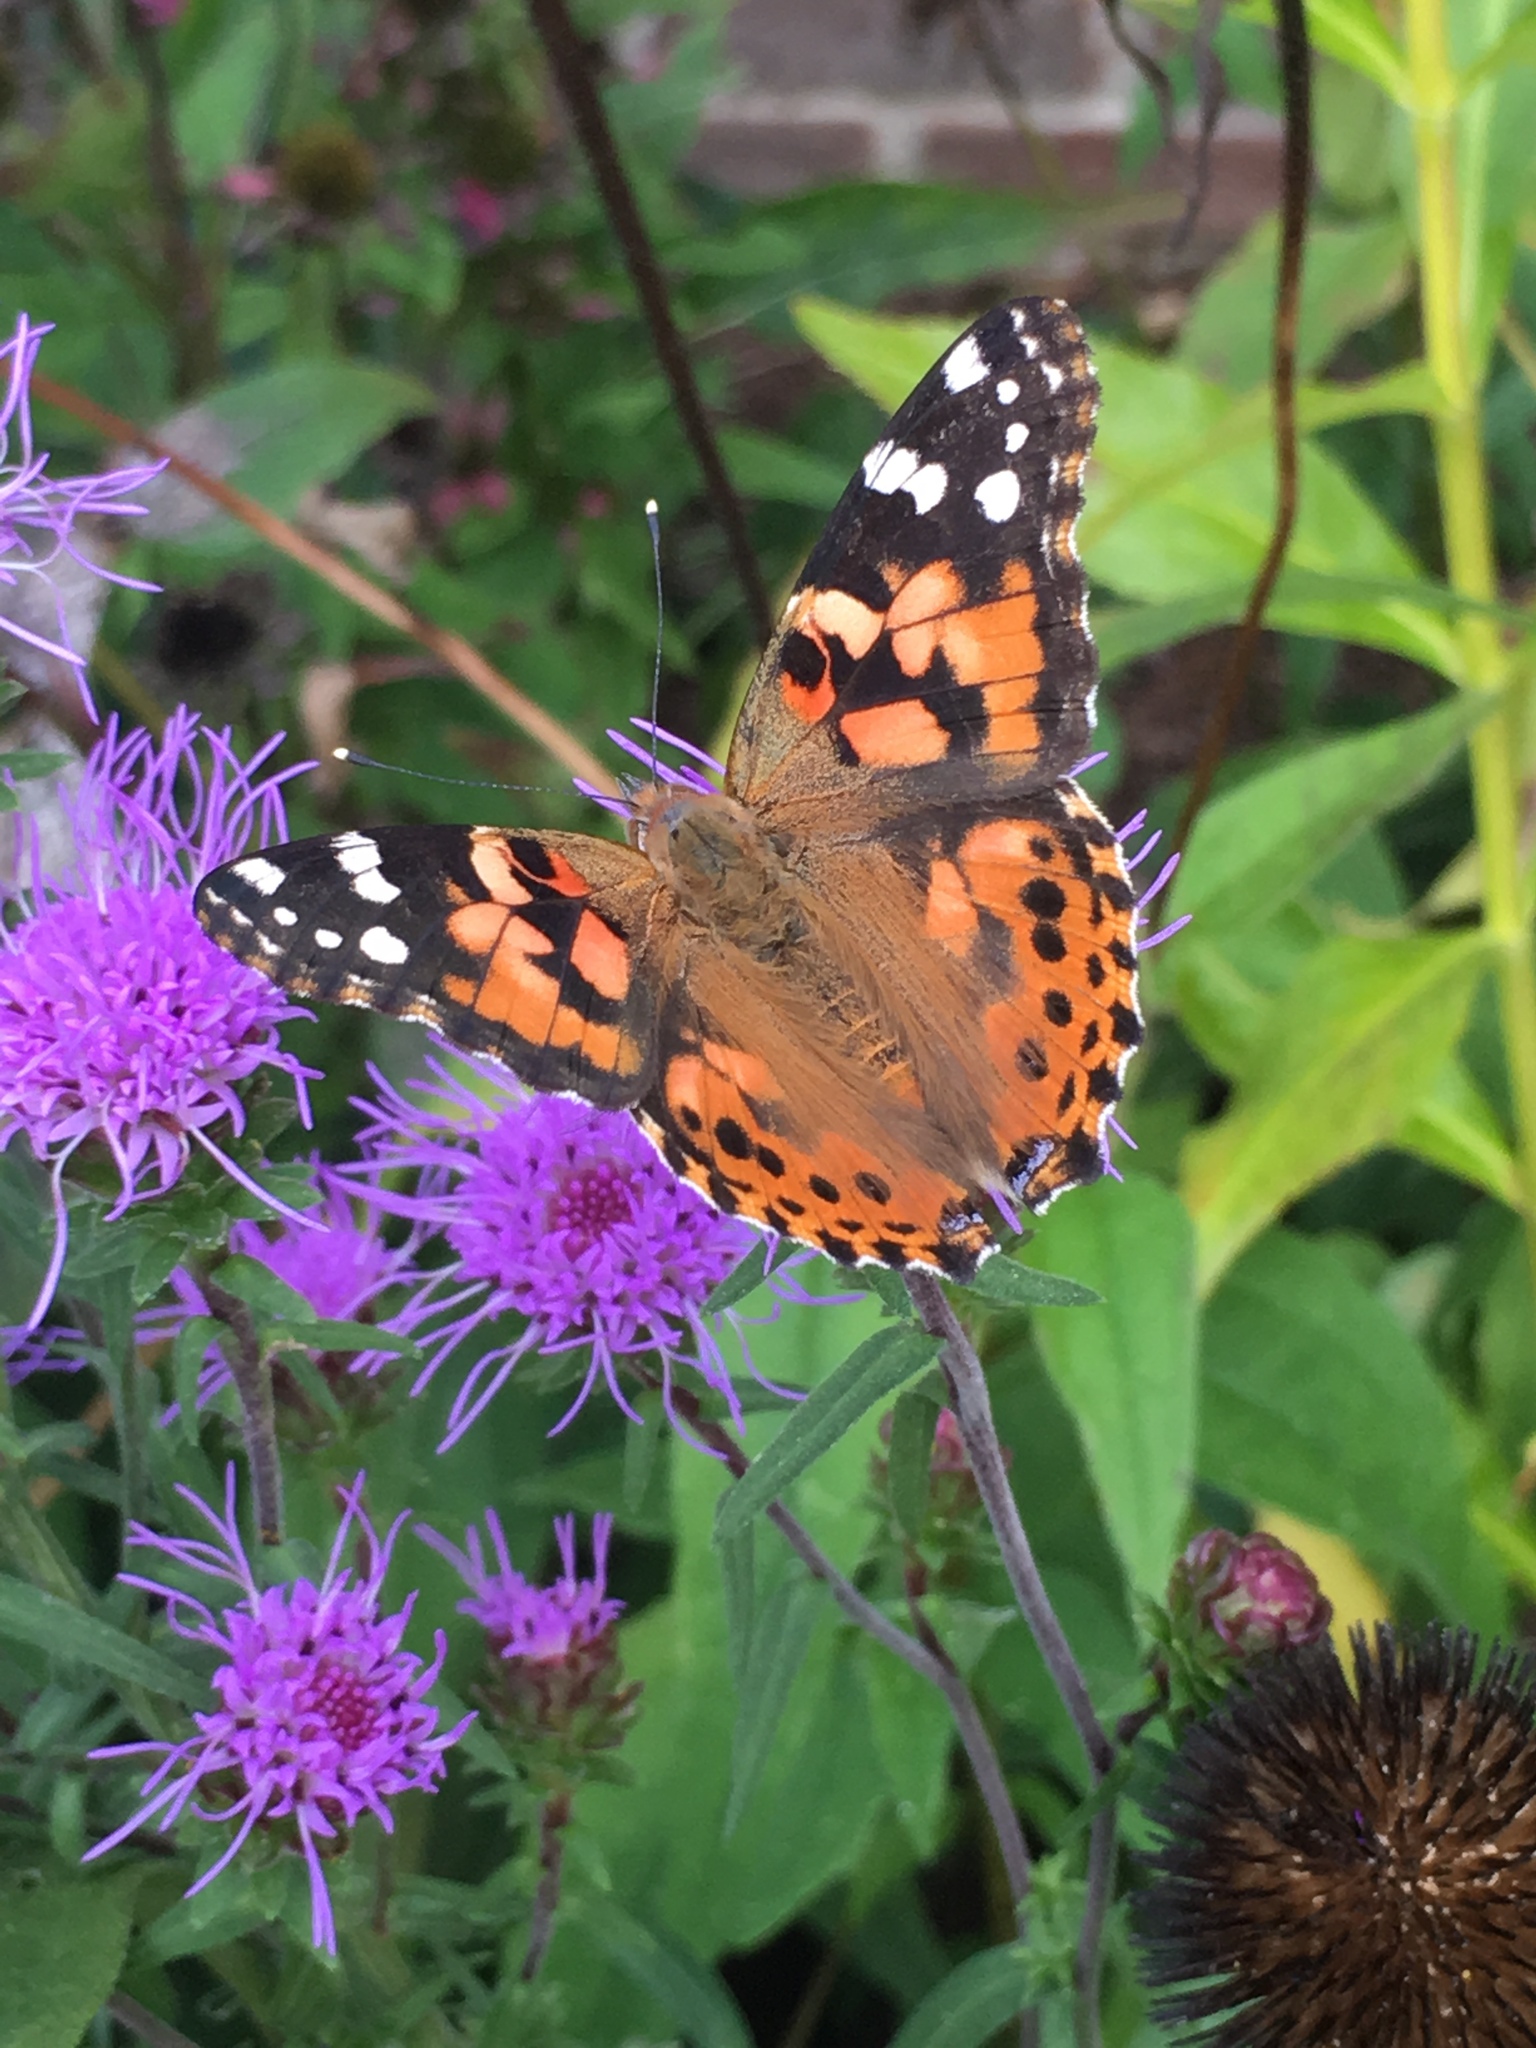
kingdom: Animalia
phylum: Arthropoda
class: Insecta
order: Lepidoptera
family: Nymphalidae
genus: Vanessa
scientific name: Vanessa cardui
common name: Painted lady
